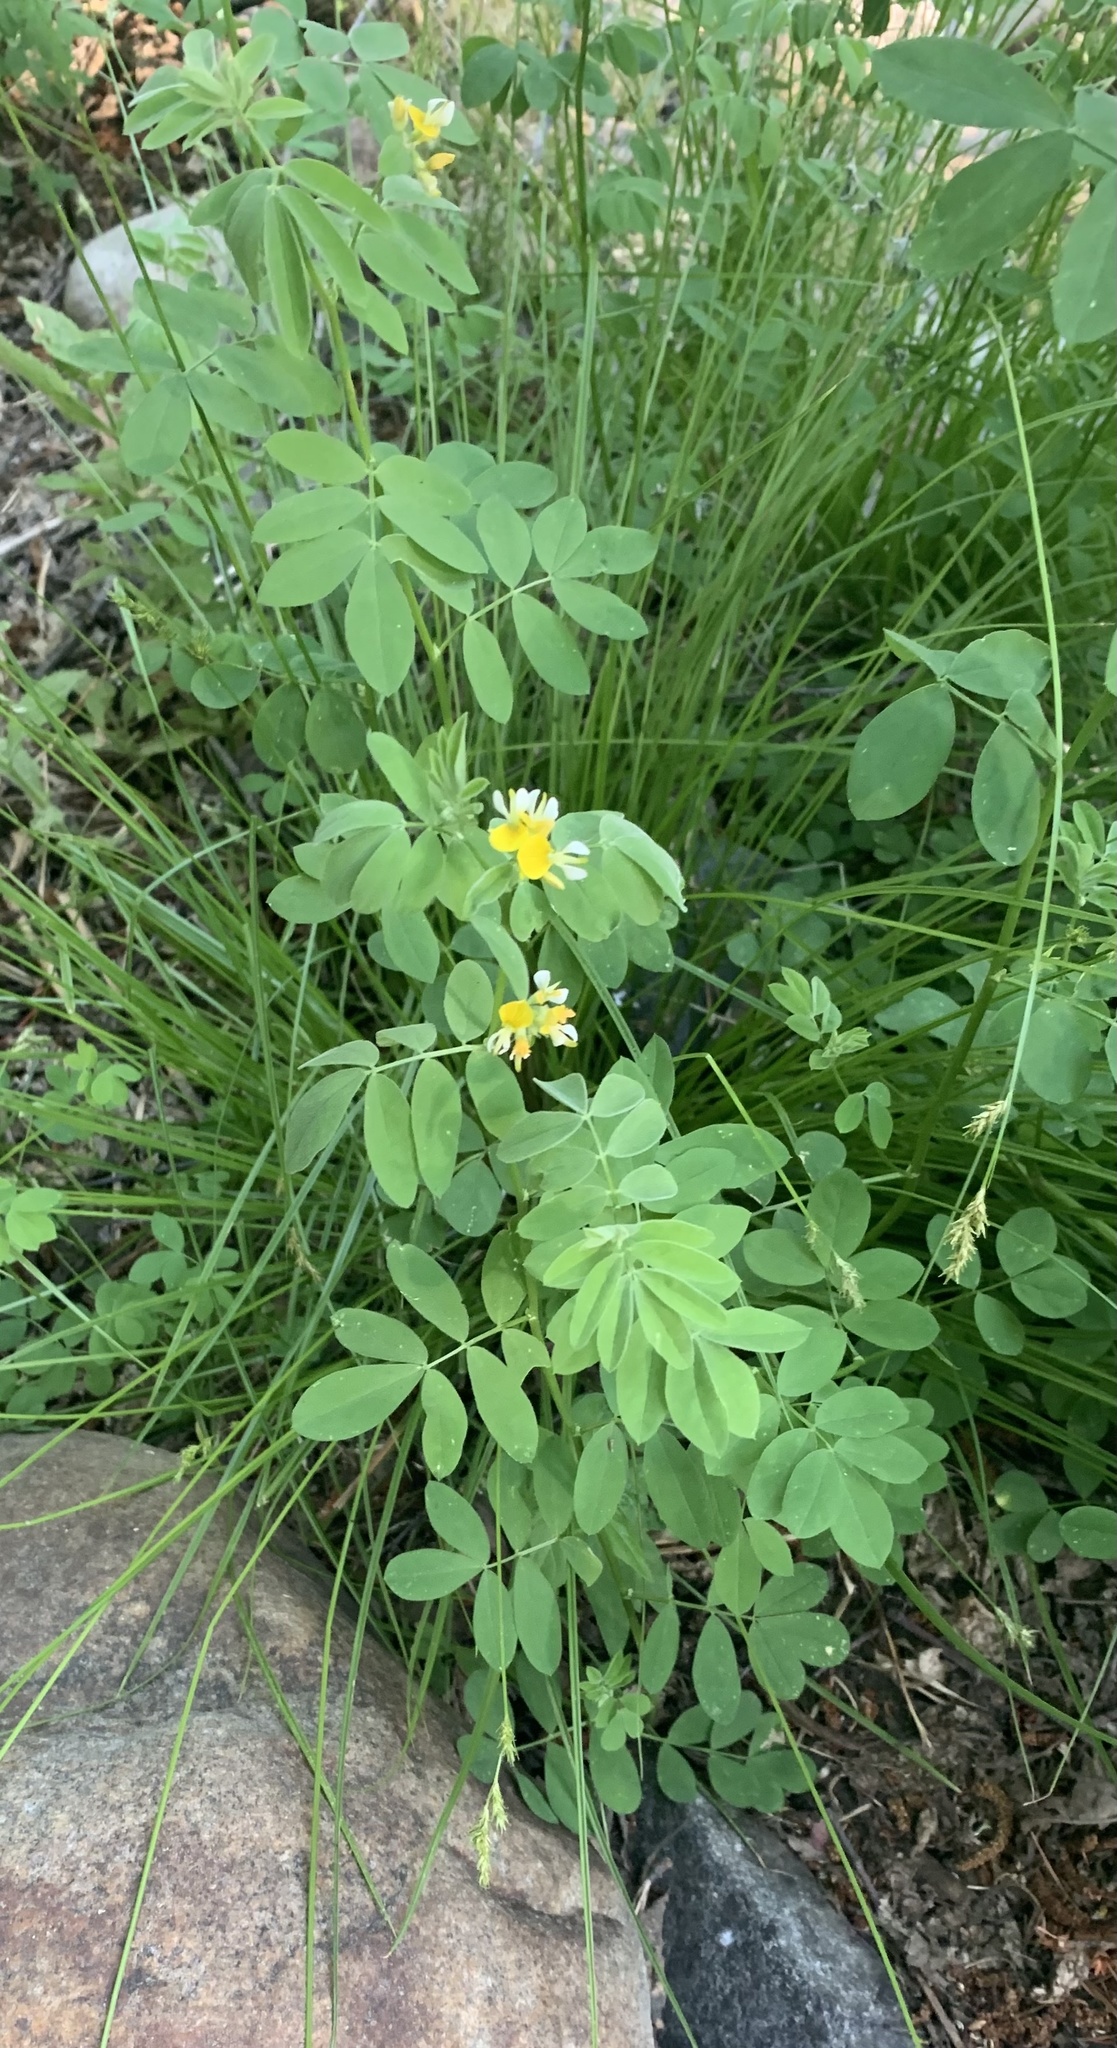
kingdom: Plantae
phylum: Tracheophyta
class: Magnoliopsida
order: Fabales
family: Fabaceae
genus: Hosackia
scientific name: Hosackia oblongifolia
